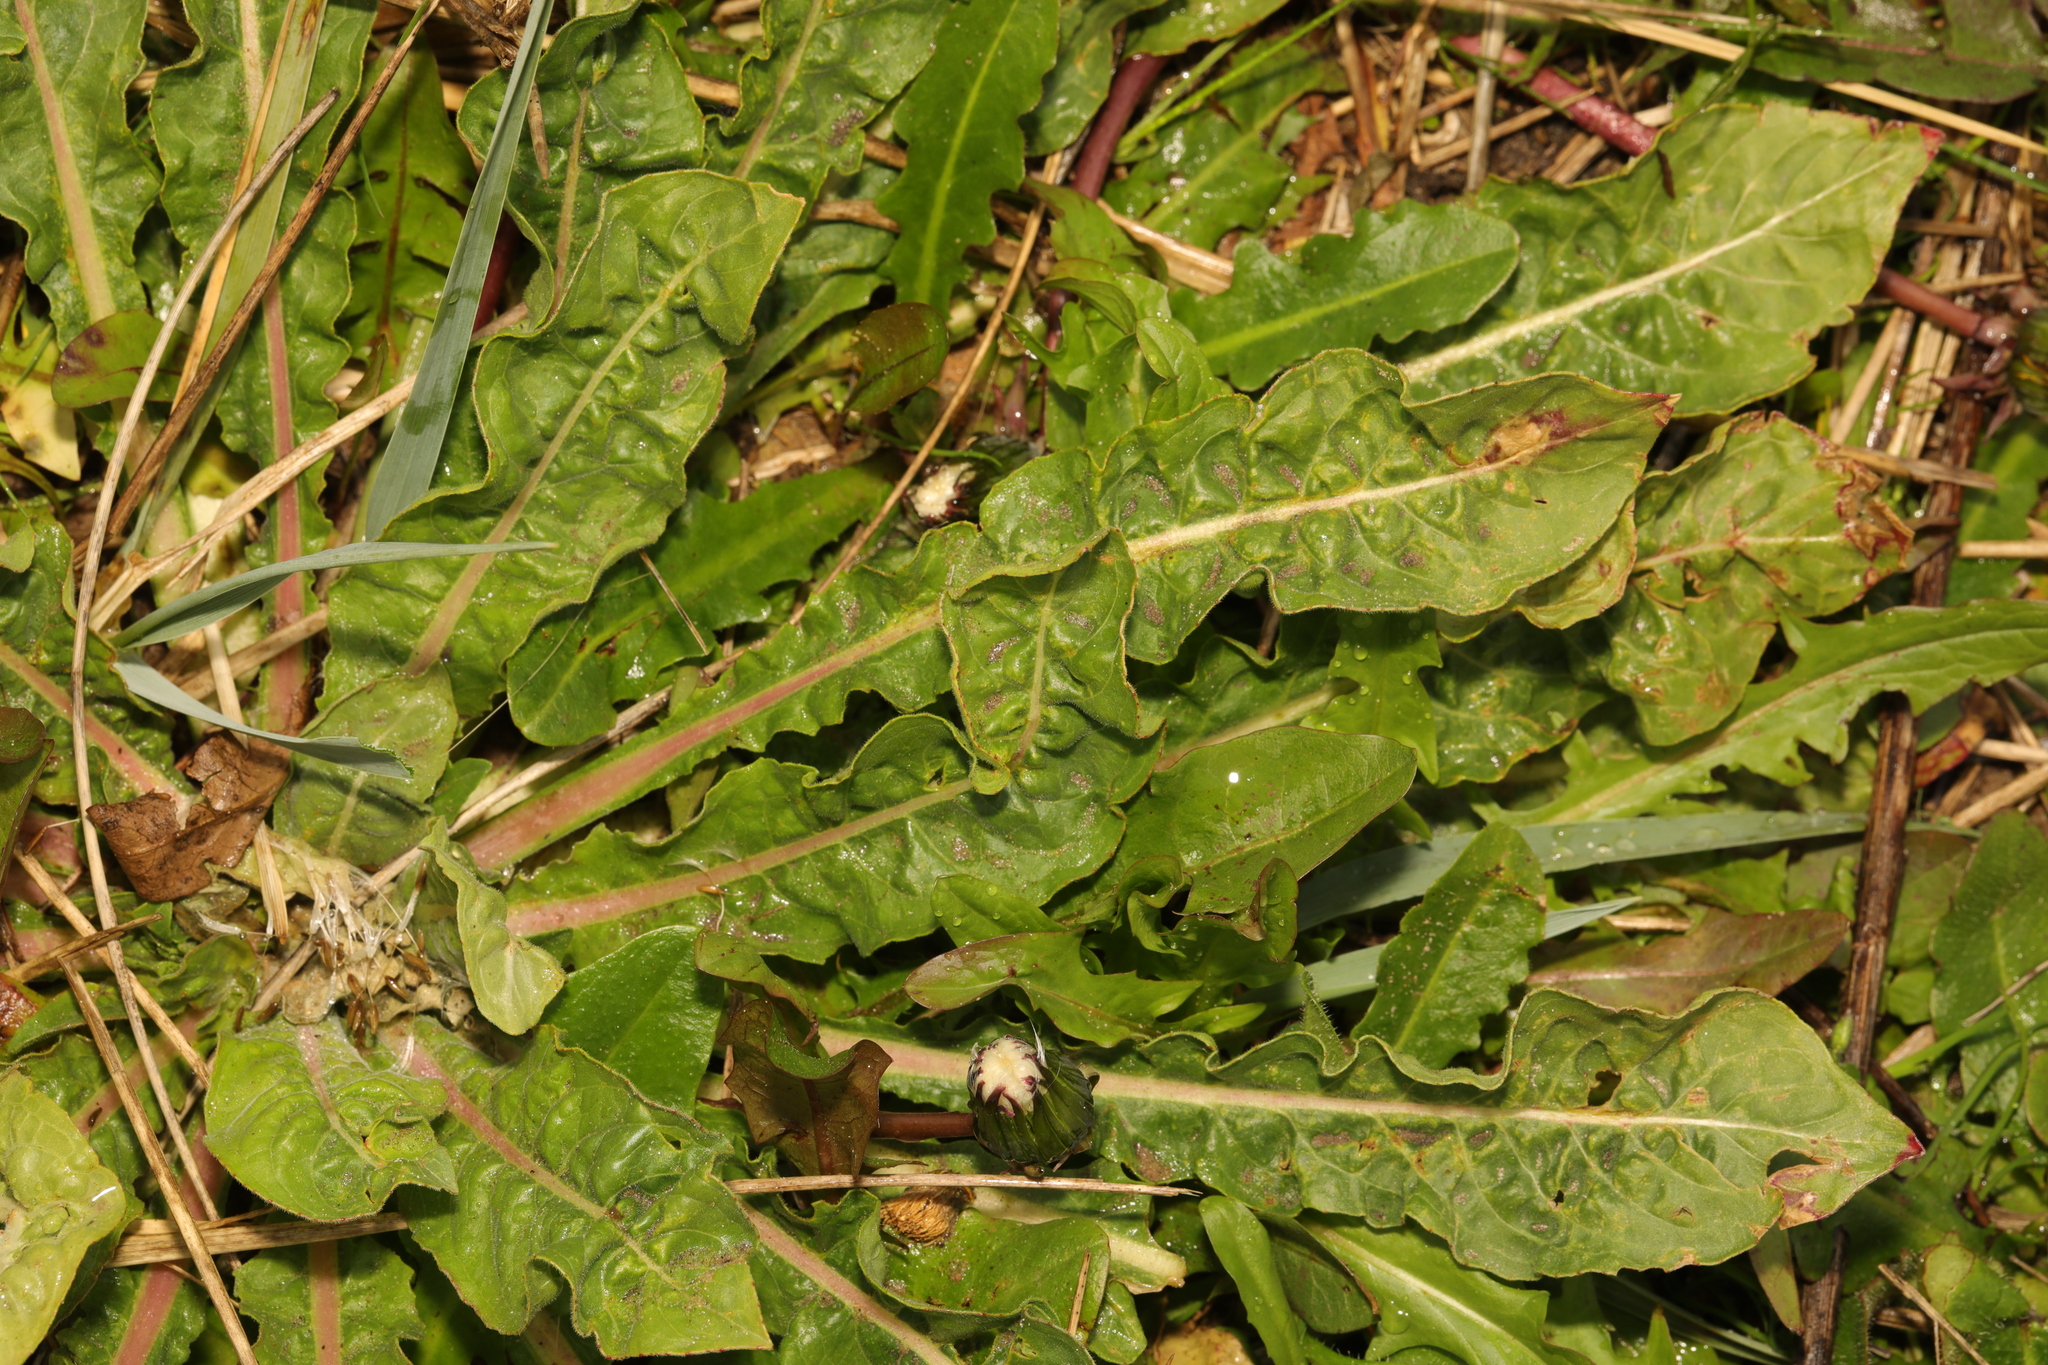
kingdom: Plantae
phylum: Tracheophyta
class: Magnoliopsida
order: Asterales
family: Asteraceae
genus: Taraxacum
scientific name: Taraxacum officinale
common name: Common dandelion
